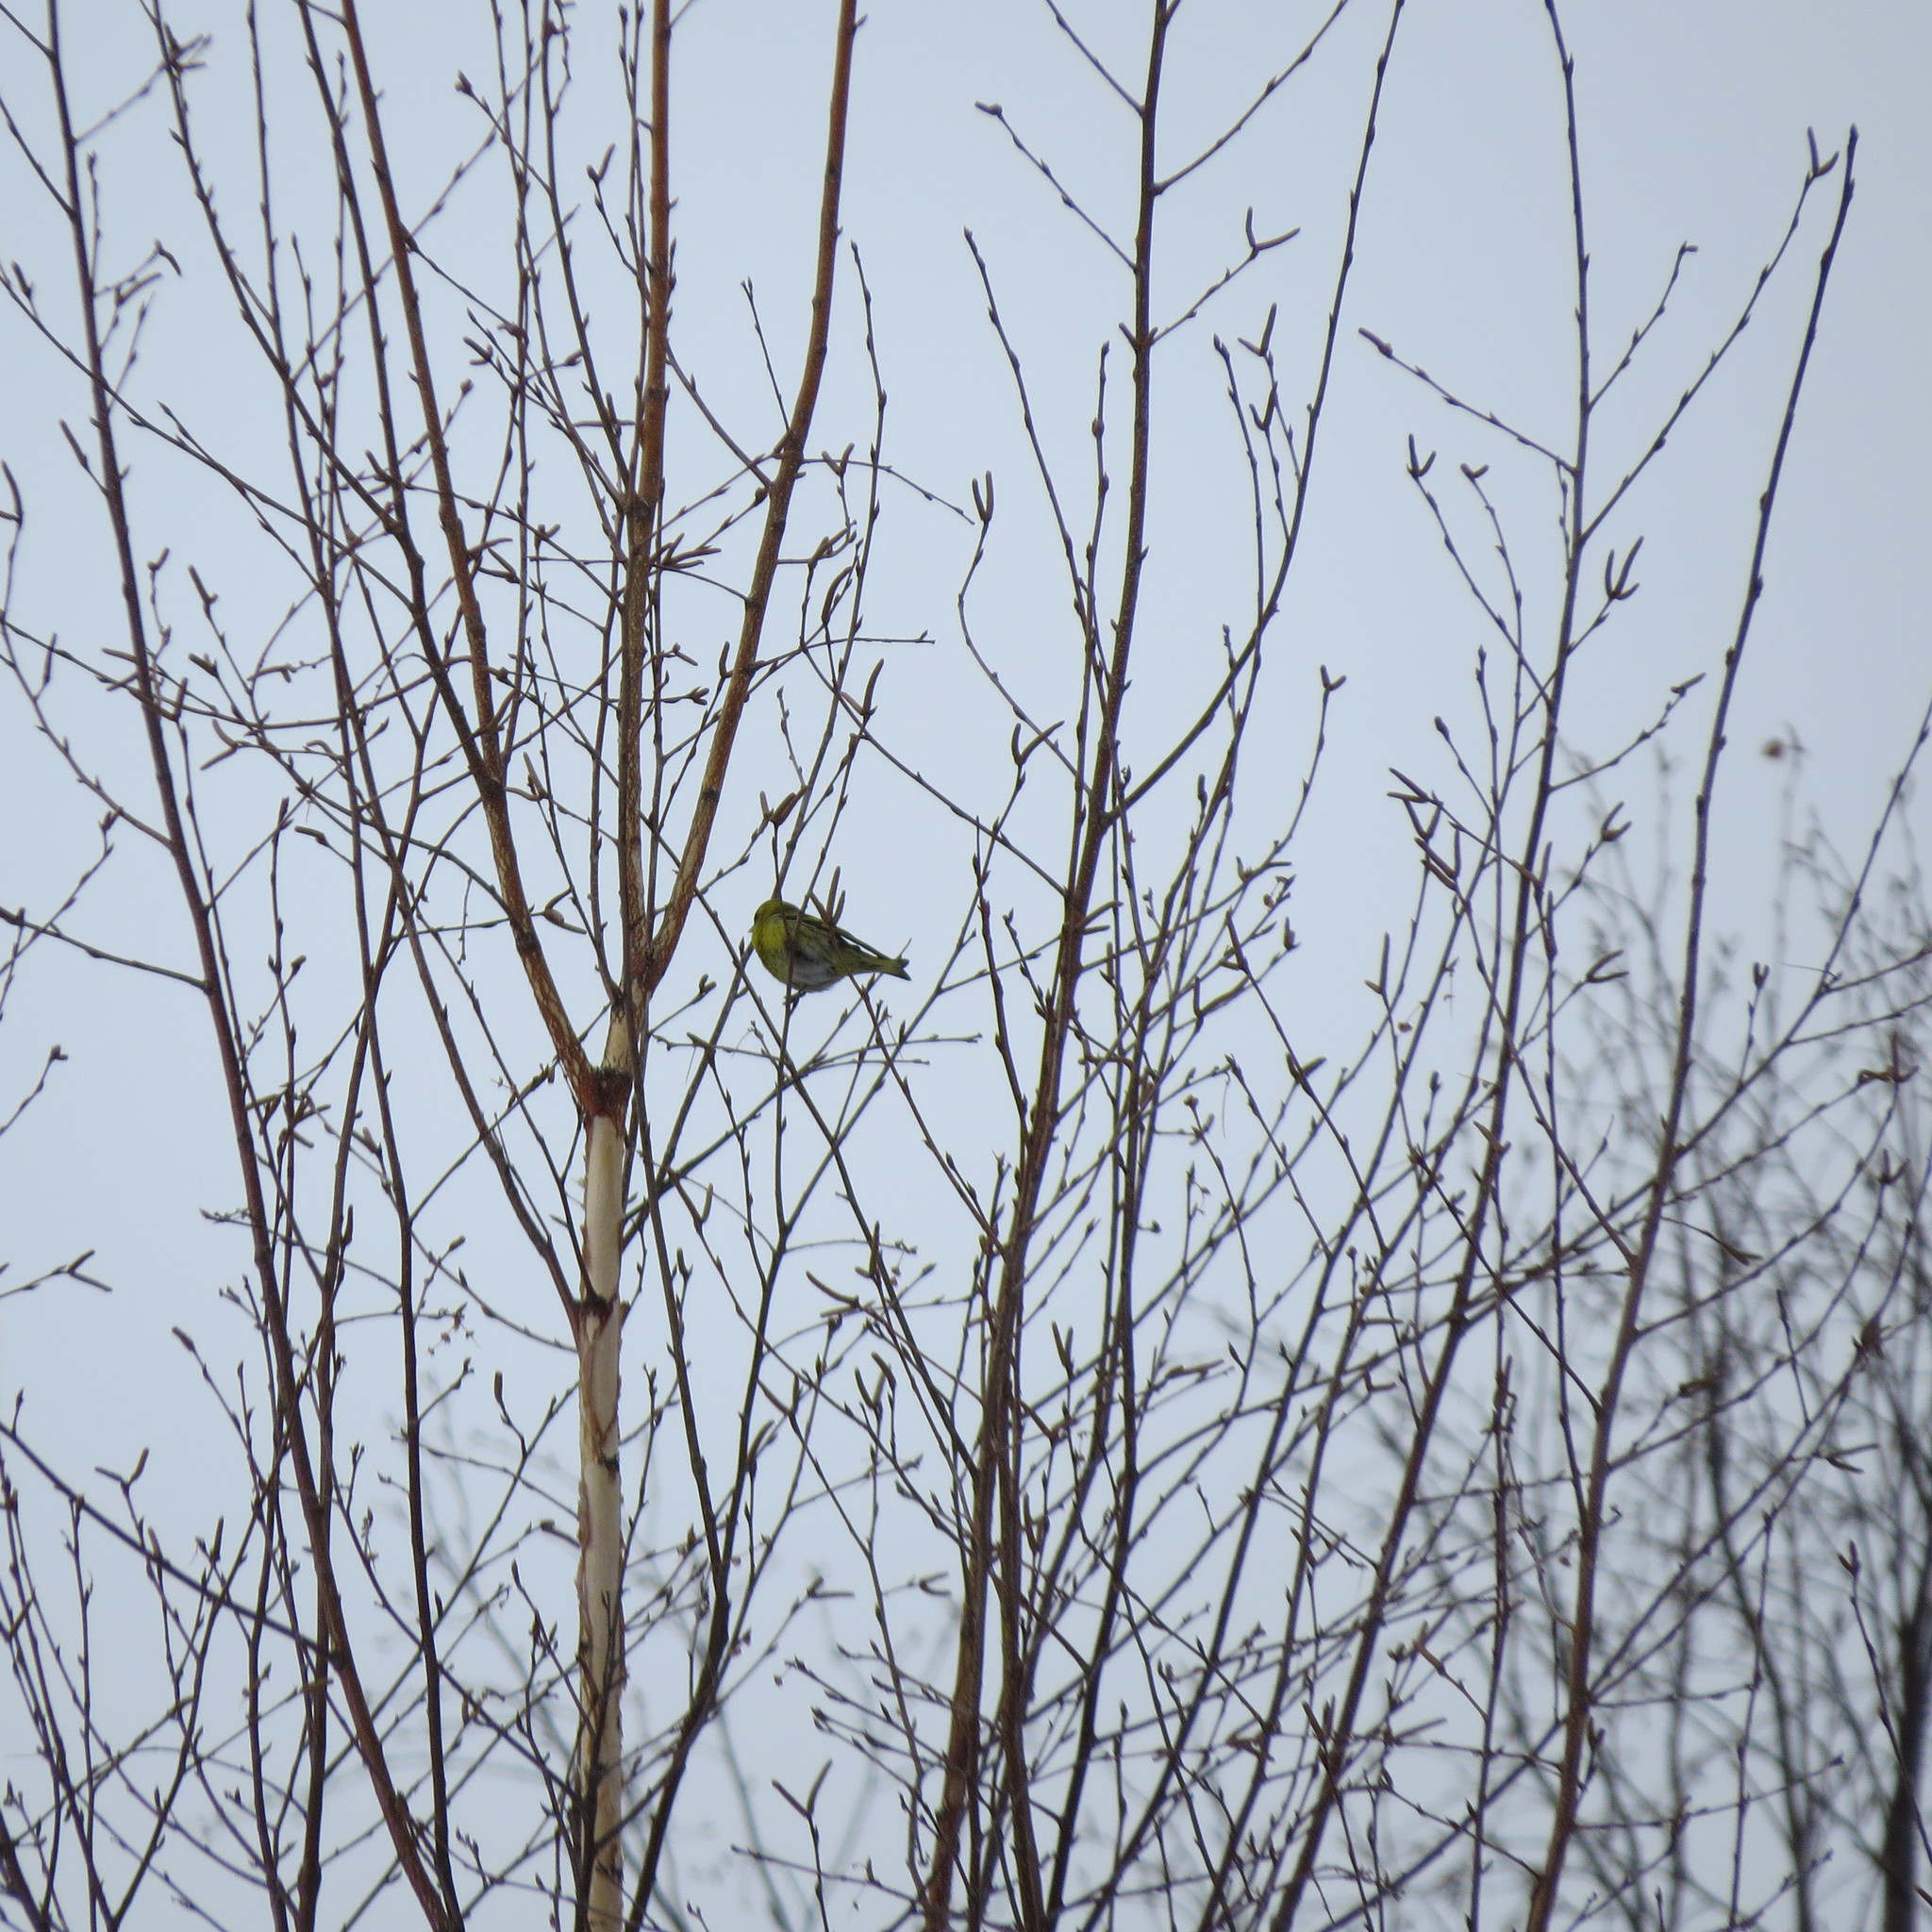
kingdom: Animalia
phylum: Chordata
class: Aves
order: Passeriformes
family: Fringillidae
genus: Spinus
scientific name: Spinus spinus
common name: Eurasian siskin
